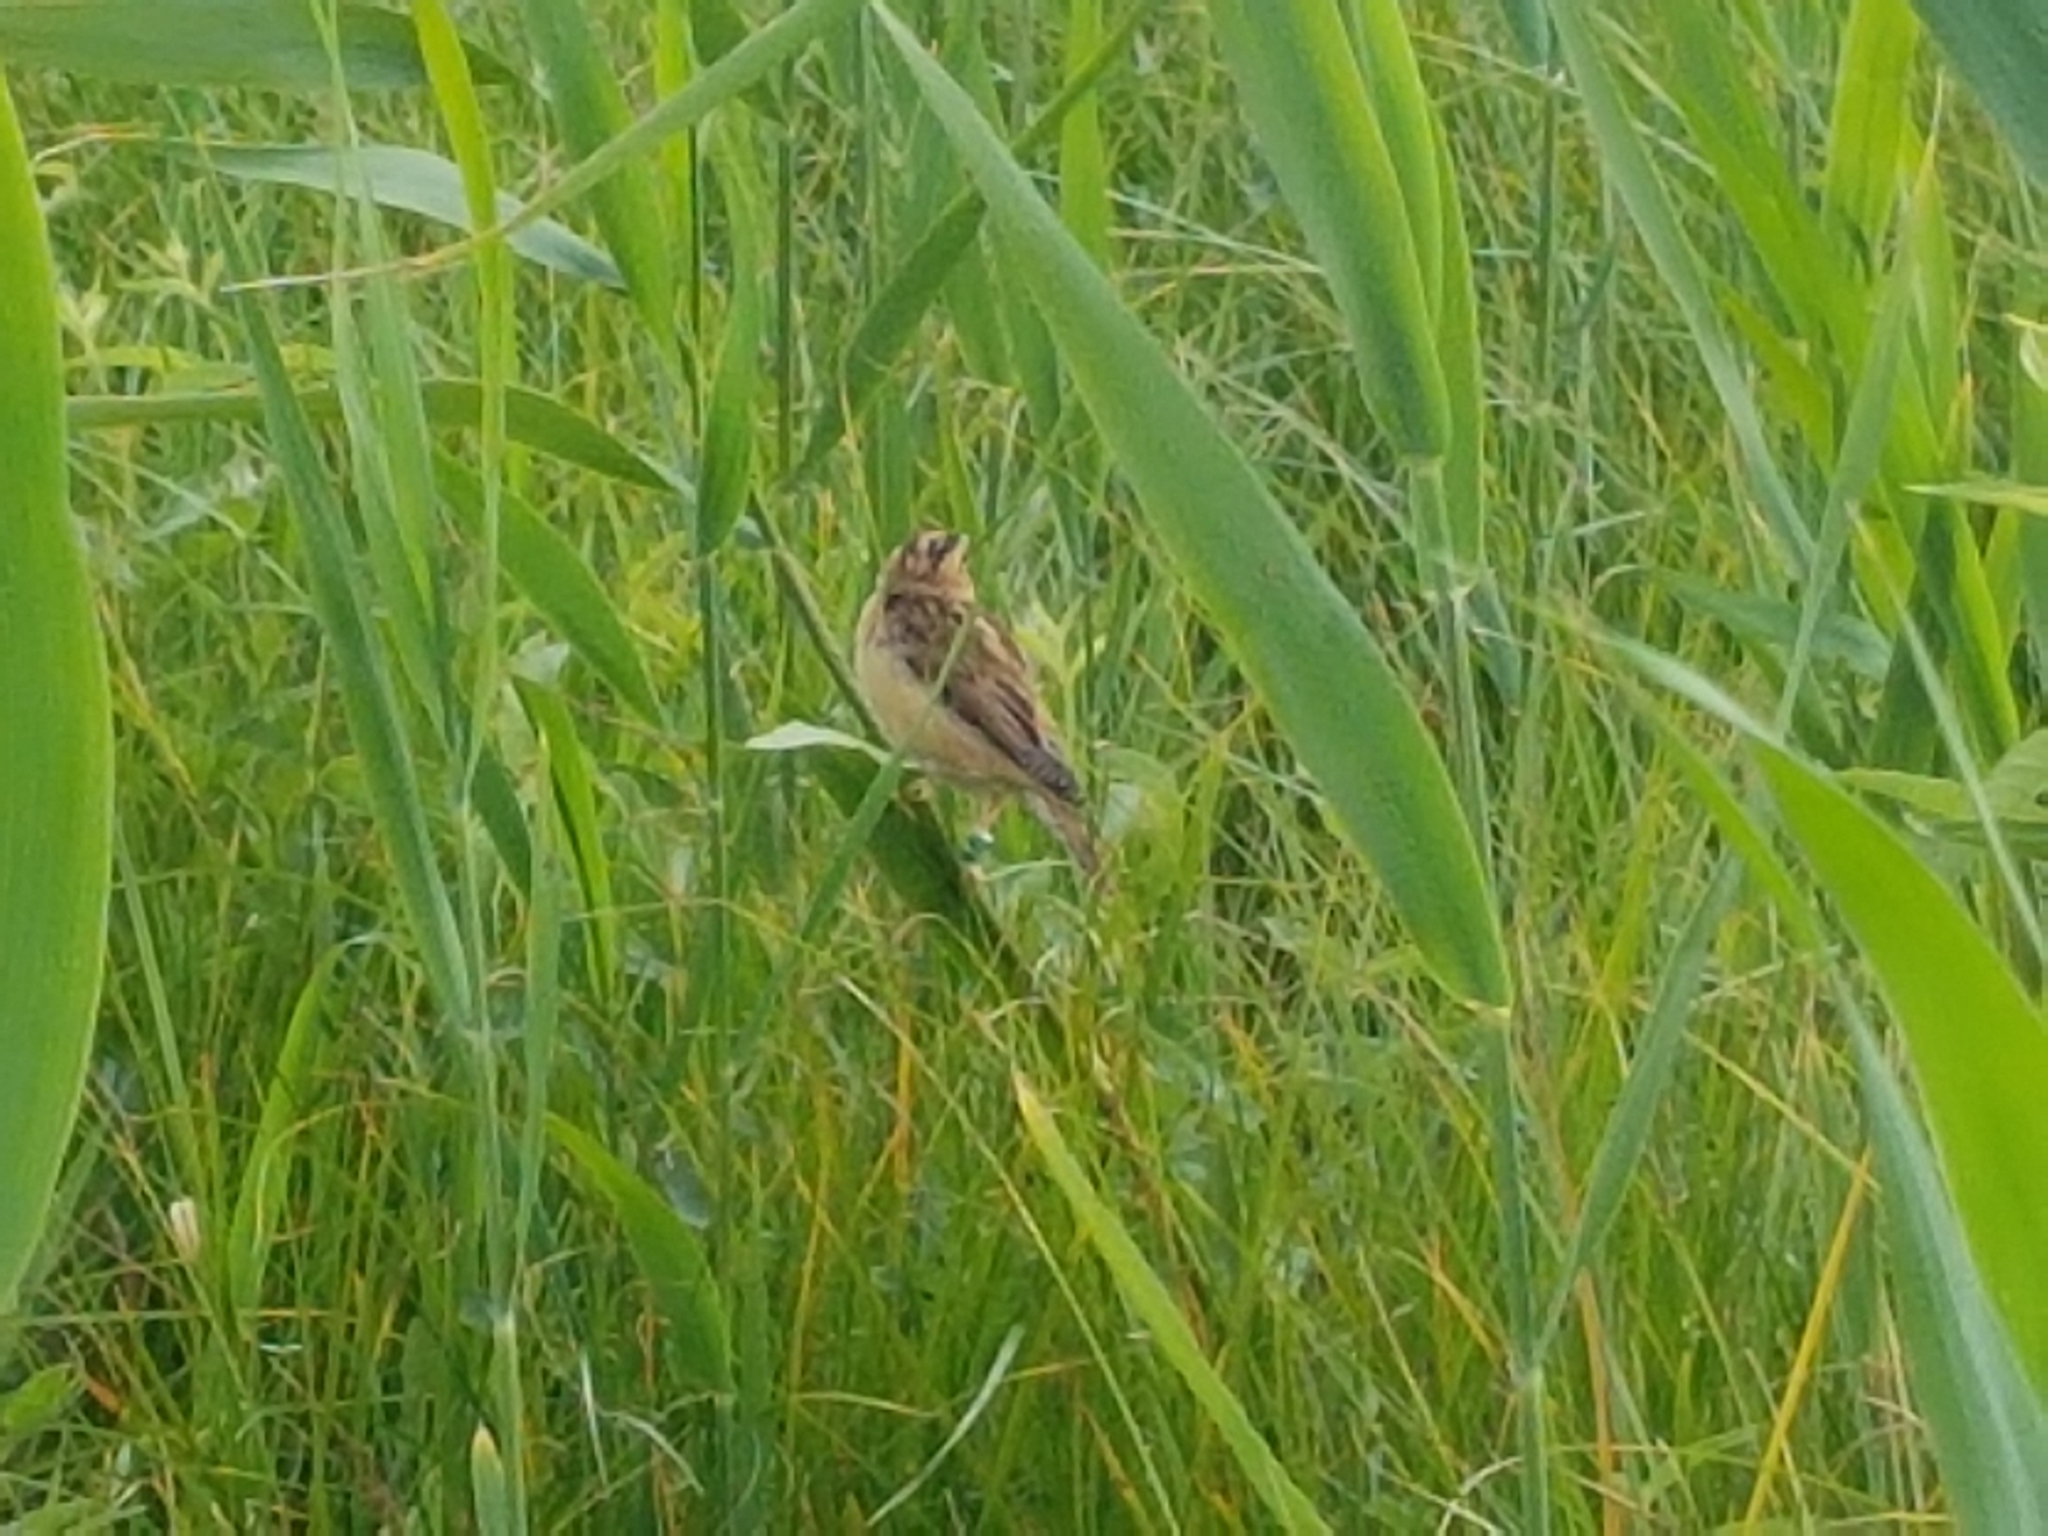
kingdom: Animalia
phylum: Chordata
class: Aves
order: Passeriformes
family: Acrocephalidae
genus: Acrocephalus
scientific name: Acrocephalus paludicola
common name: Aquatic warbler
